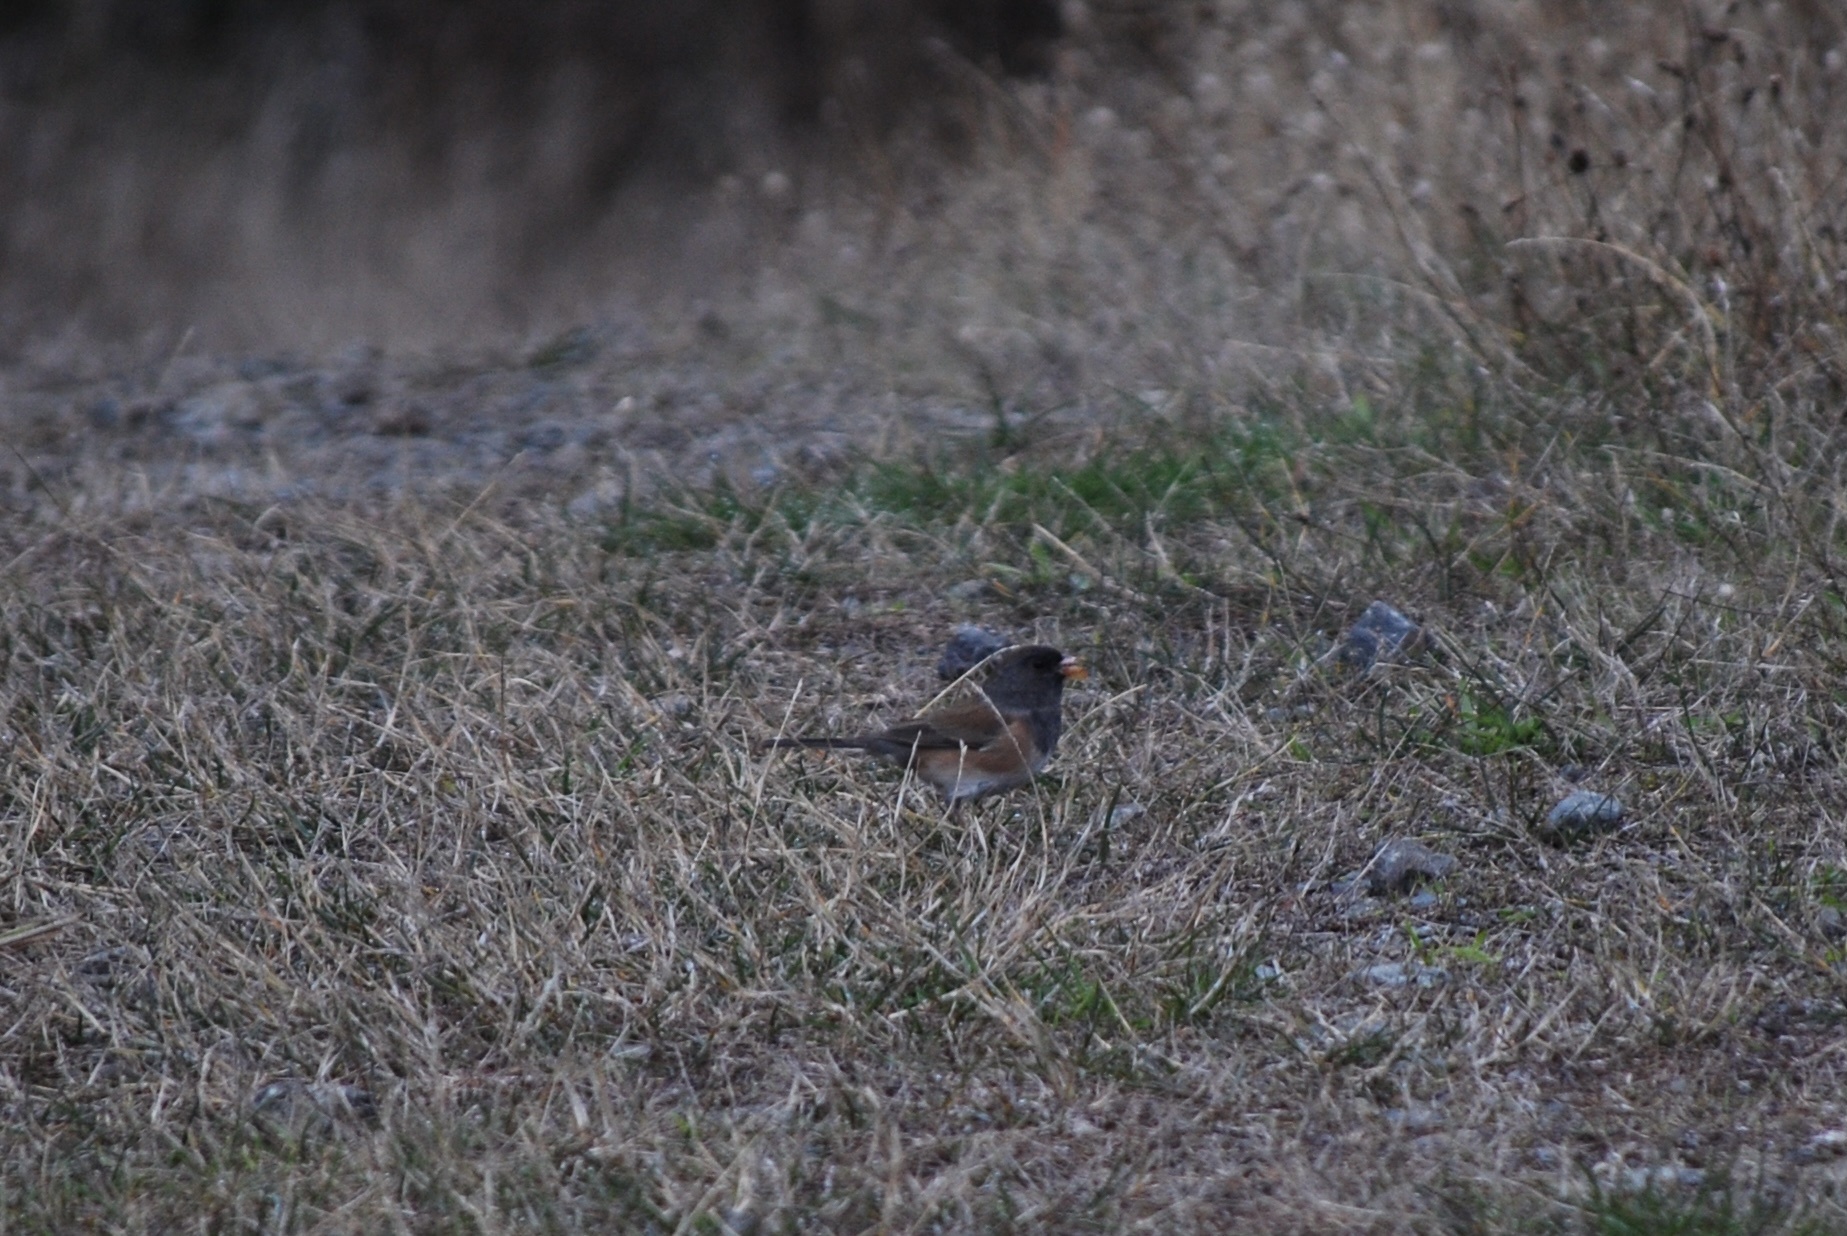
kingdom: Animalia
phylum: Chordata
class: Aves
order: Passeriformes
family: Passerellidae
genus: Junco
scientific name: Junco hyemalis
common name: Dark-eyed junco
